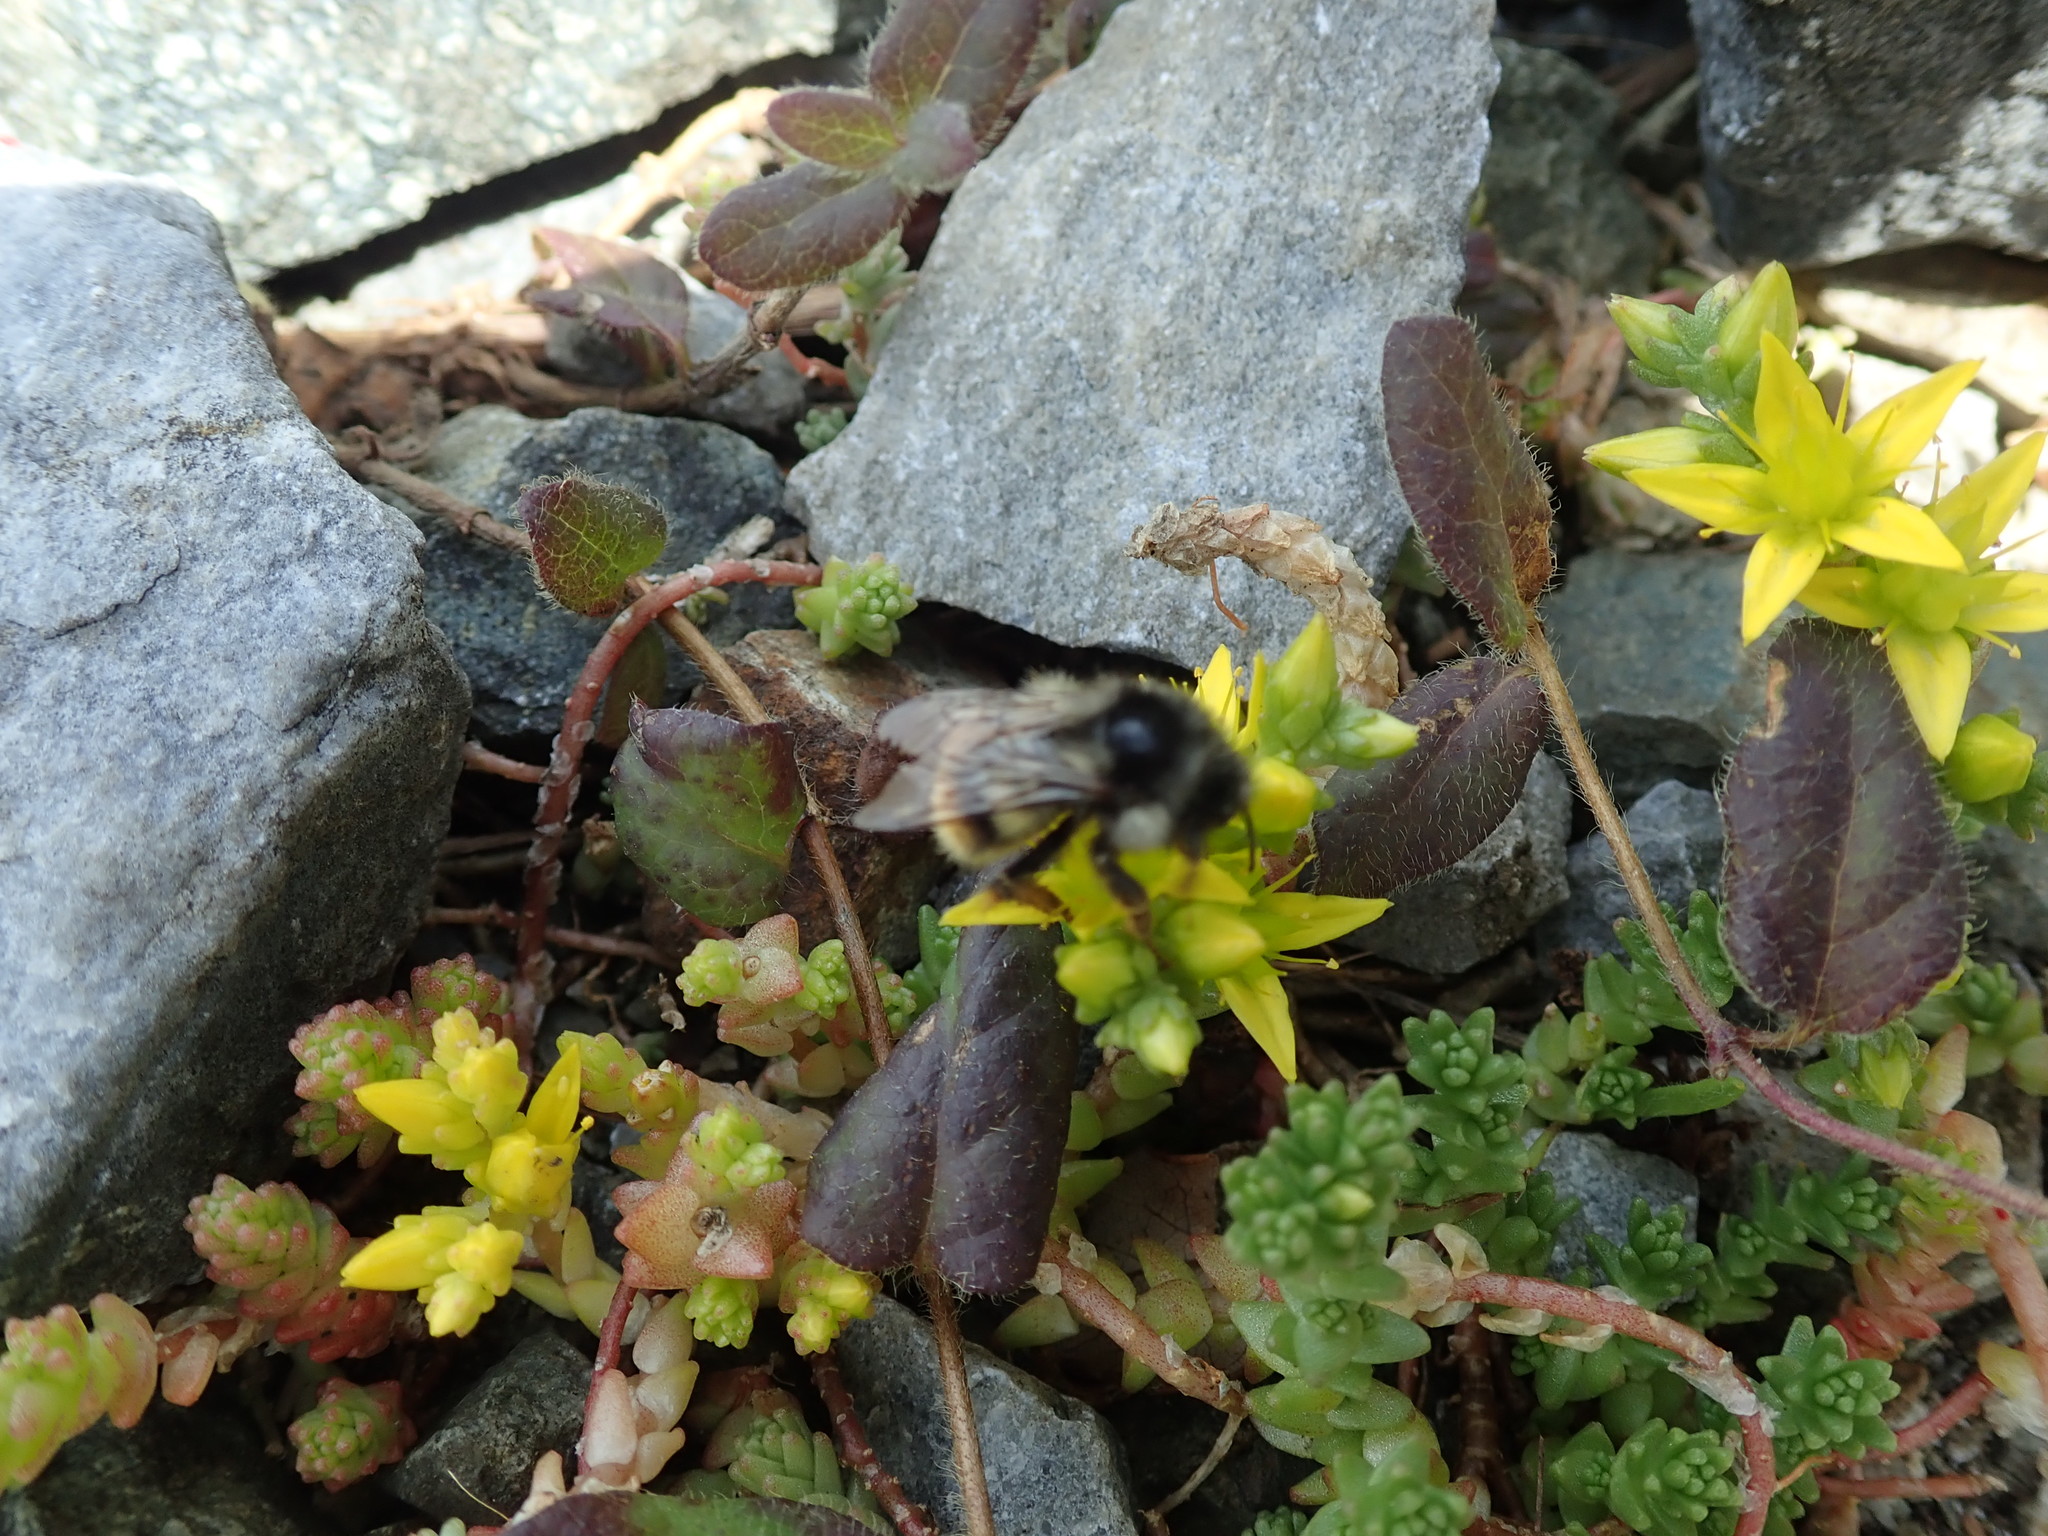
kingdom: Plantae
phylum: Tracheophyta
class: Magnoliopsida
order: Saxifragales
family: Crassulaceae
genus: Sedum
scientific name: Sedum acre
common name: Biting stonecrop
